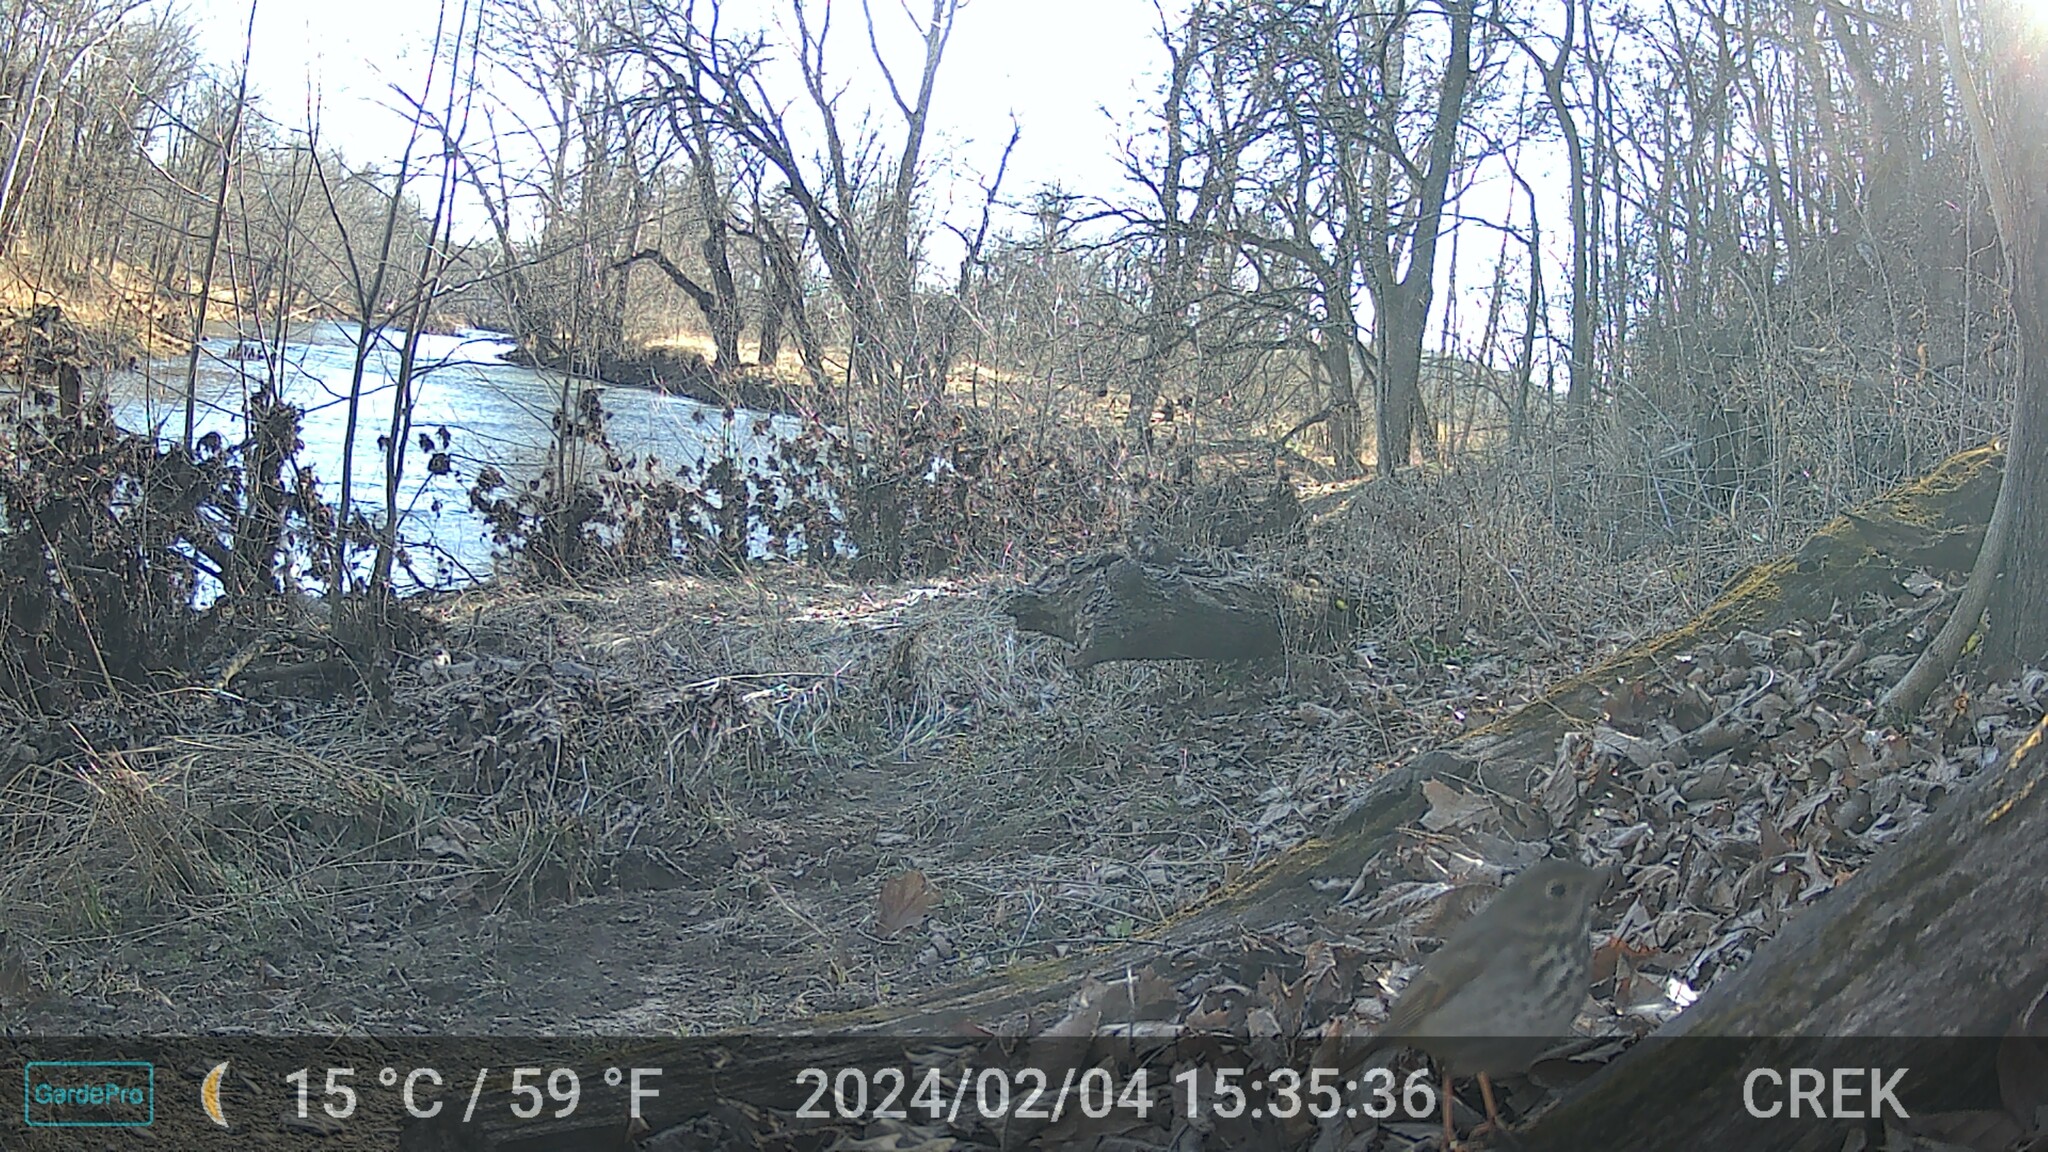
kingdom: Animalia
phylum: Chordata
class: Aves
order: Passeriformes
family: Turdidae
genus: Catharus
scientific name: Catharus guttatus
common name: Hermit thrush
